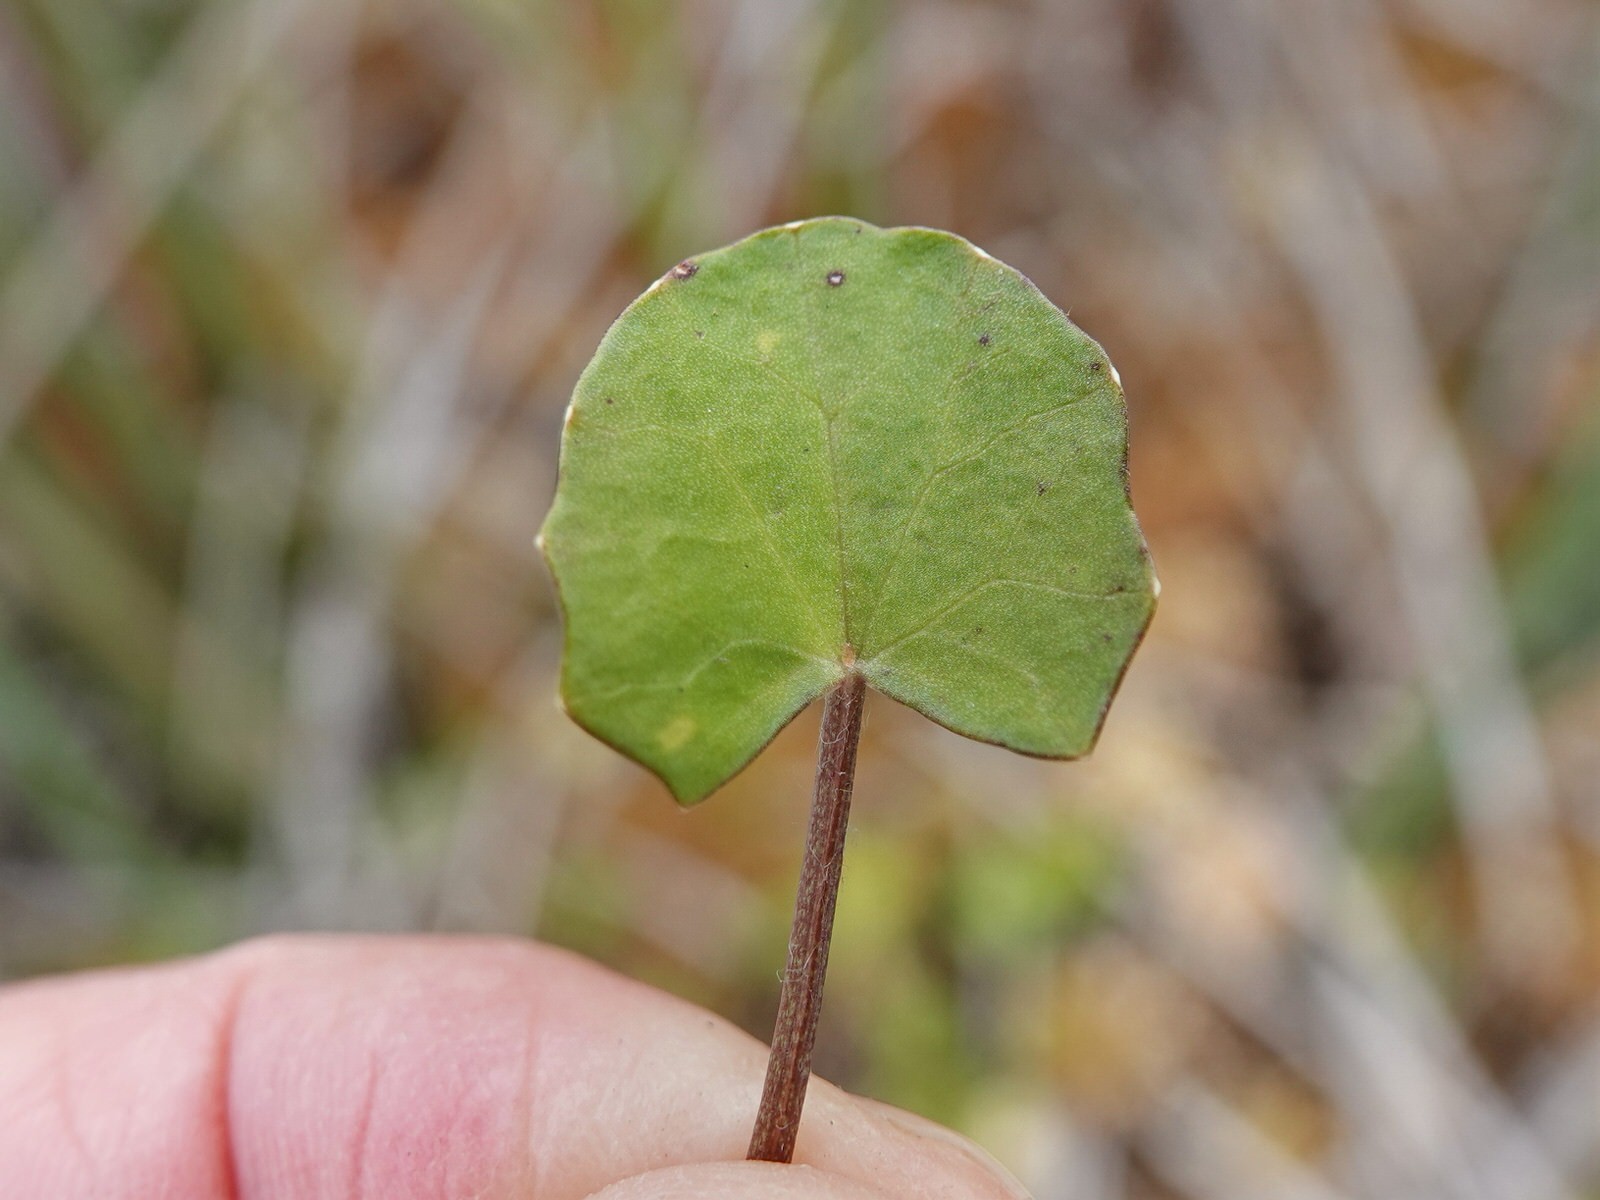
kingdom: Plantae
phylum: Tracheophyta
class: Magnoliopsida
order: Apiales
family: Apiaceae
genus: Centella
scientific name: Centella uniflora
